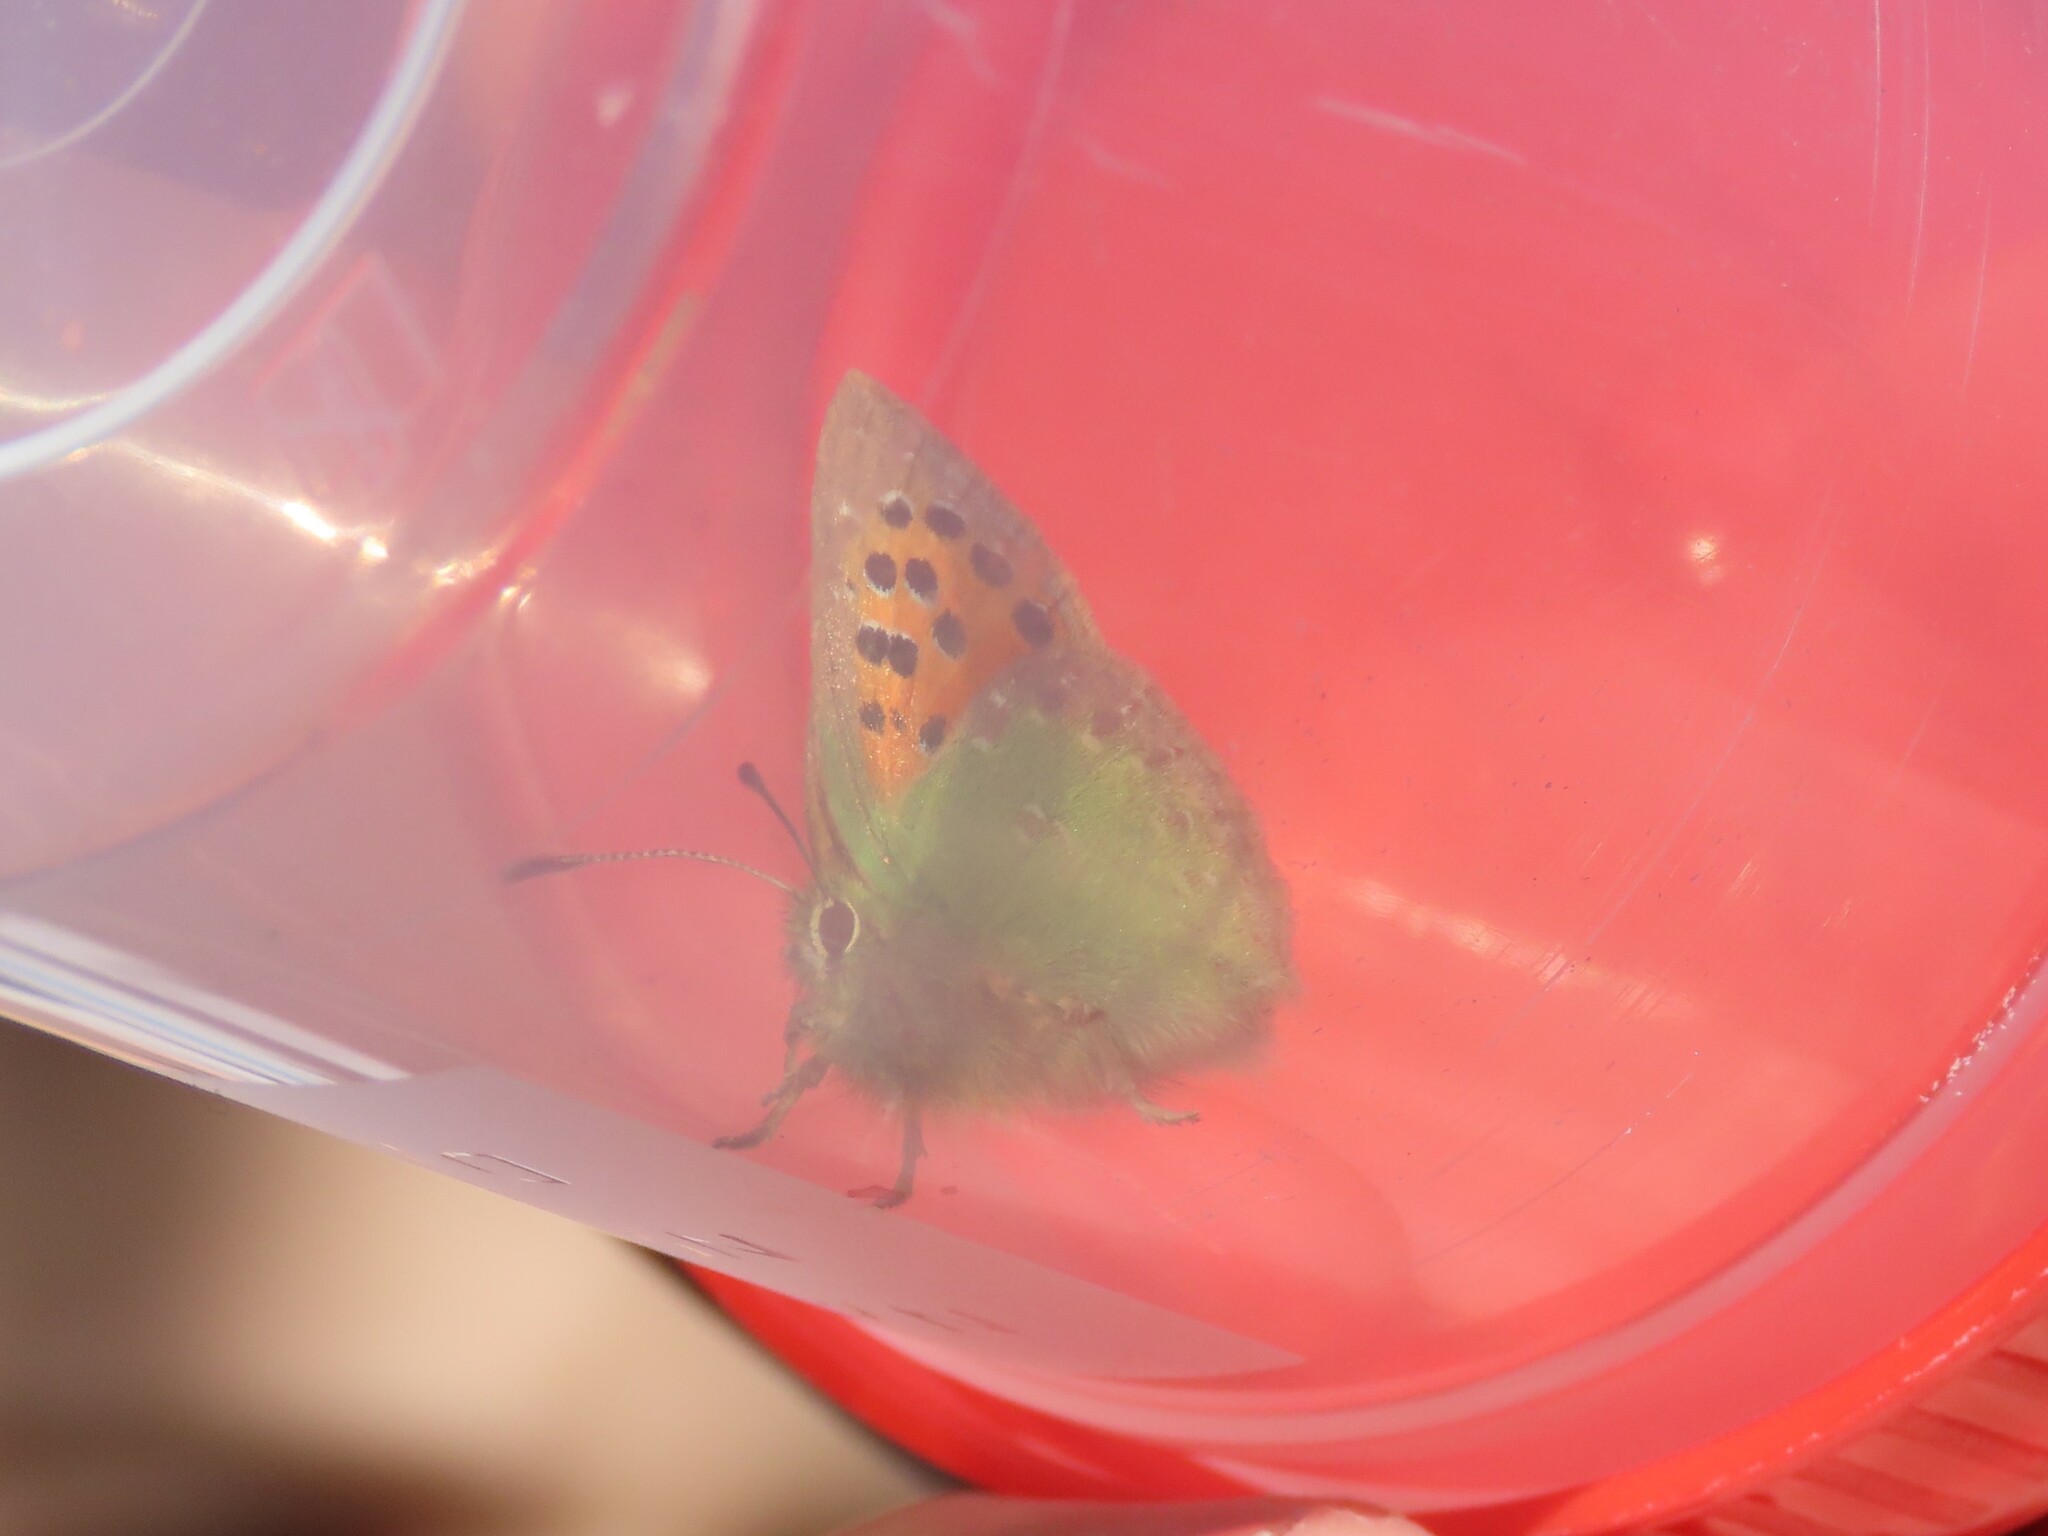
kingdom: Animalia
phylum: Arthropoda
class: Insecta
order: Lepidoptera
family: Lycaenidae
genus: Tomares
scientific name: Tomares ballus
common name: Provence hairstreak
